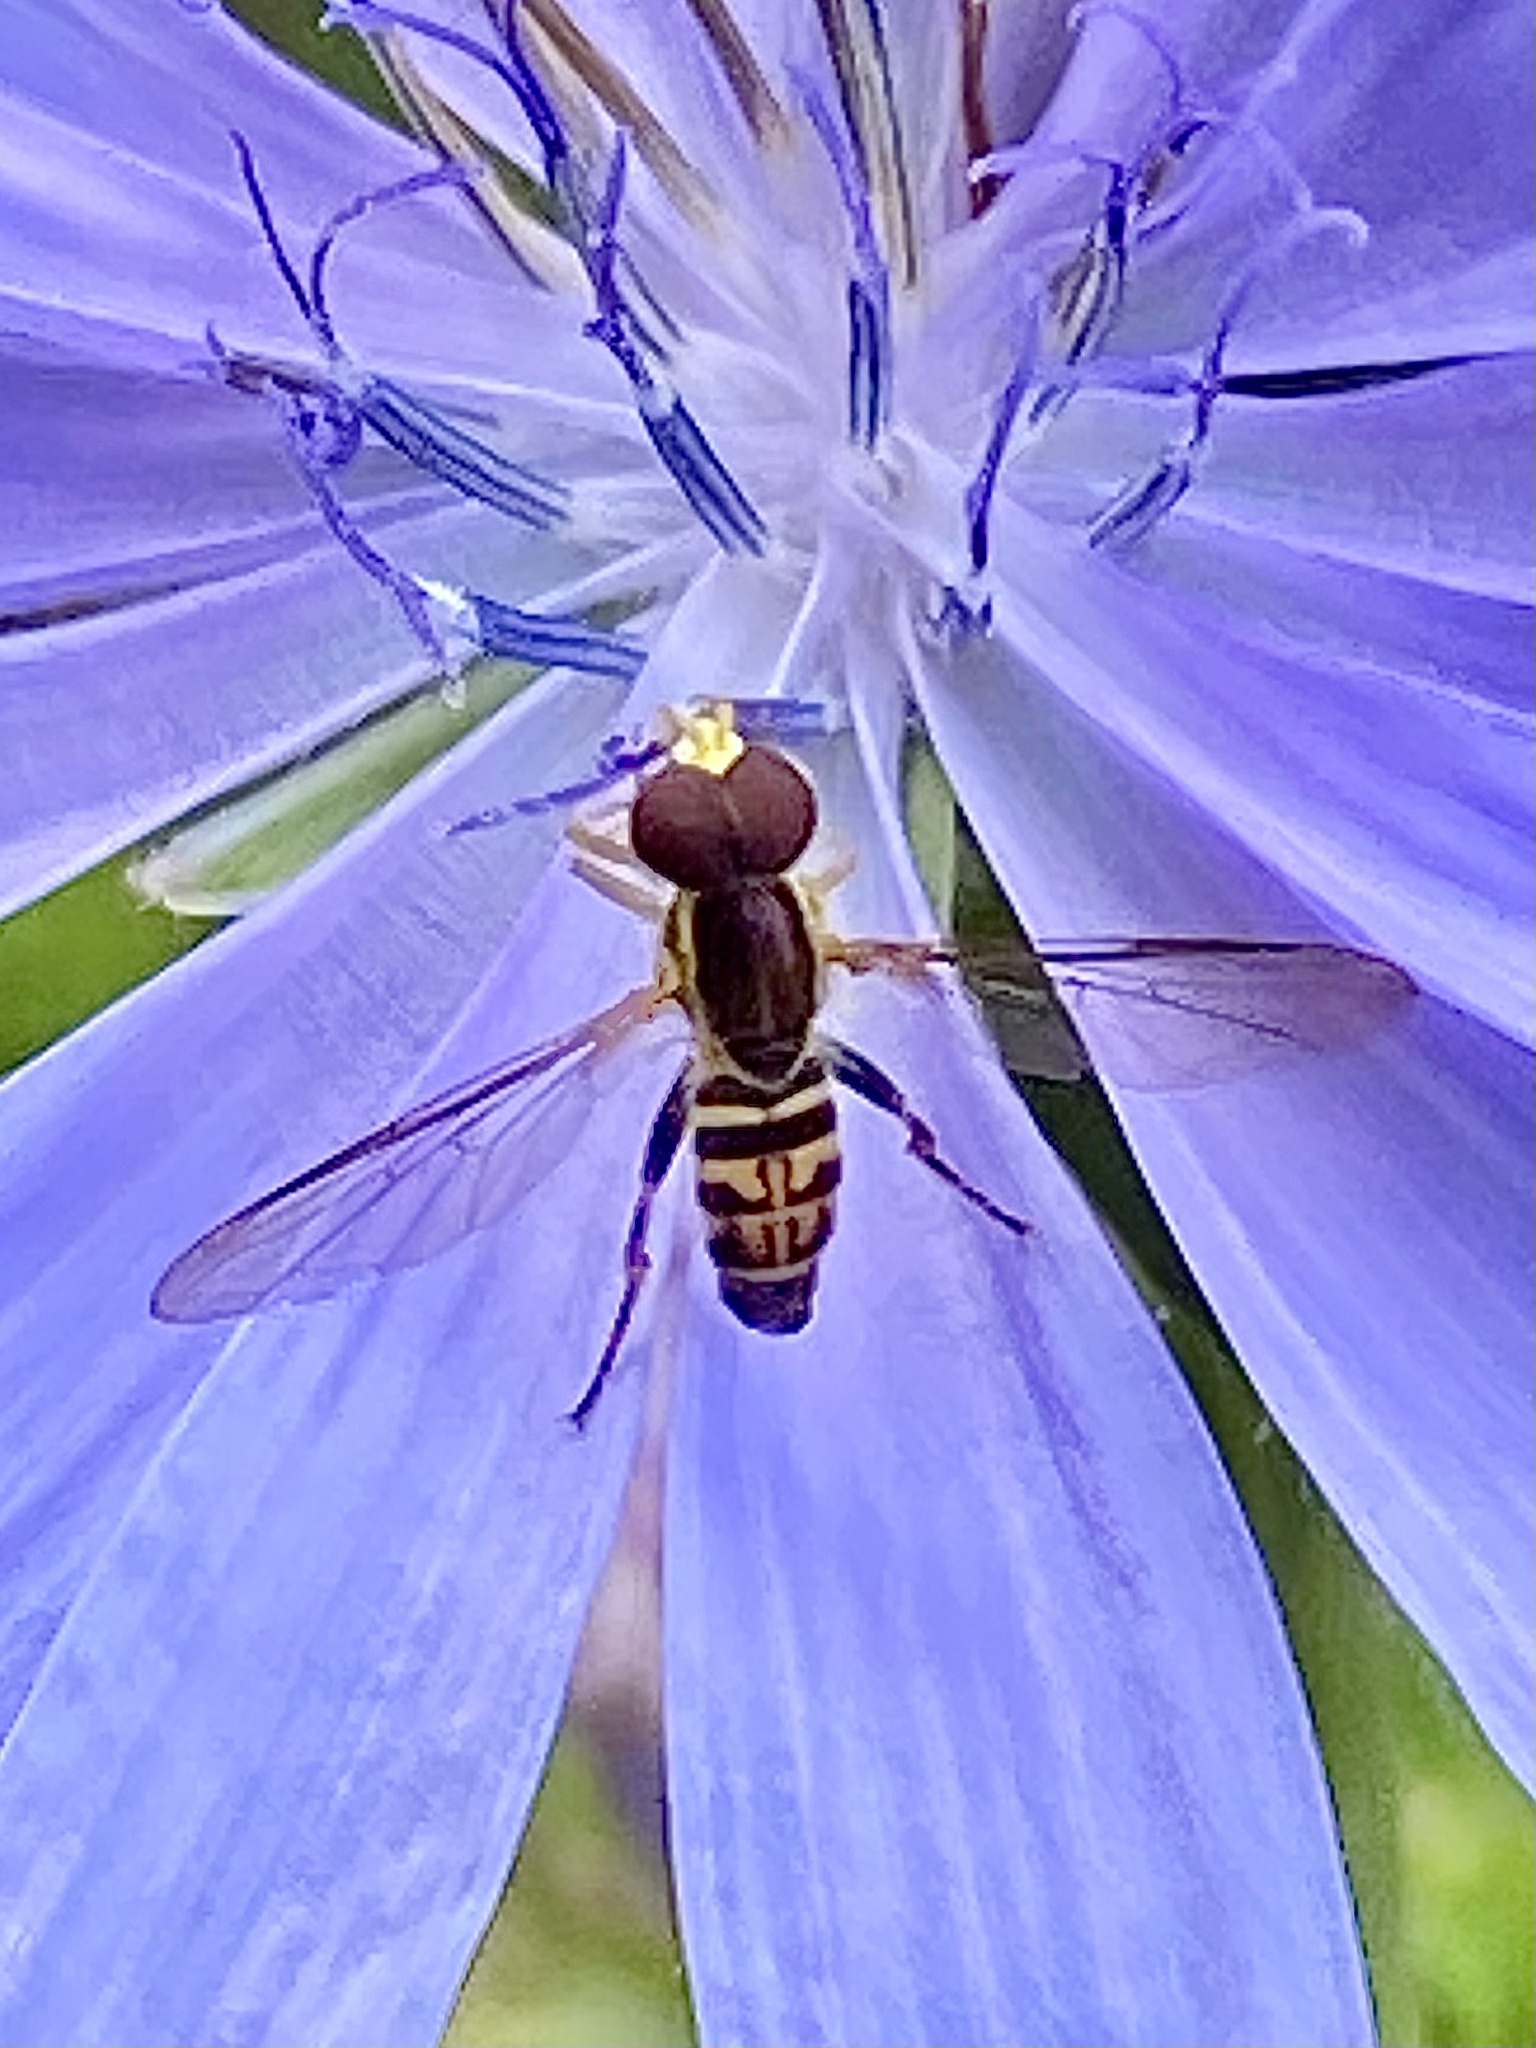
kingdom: Animalia
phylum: Arthropoda
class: Insecta
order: Diptera
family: Syrphidae
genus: Toxomerus
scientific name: Toxomerus geminatus
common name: Eastern calligrapher
